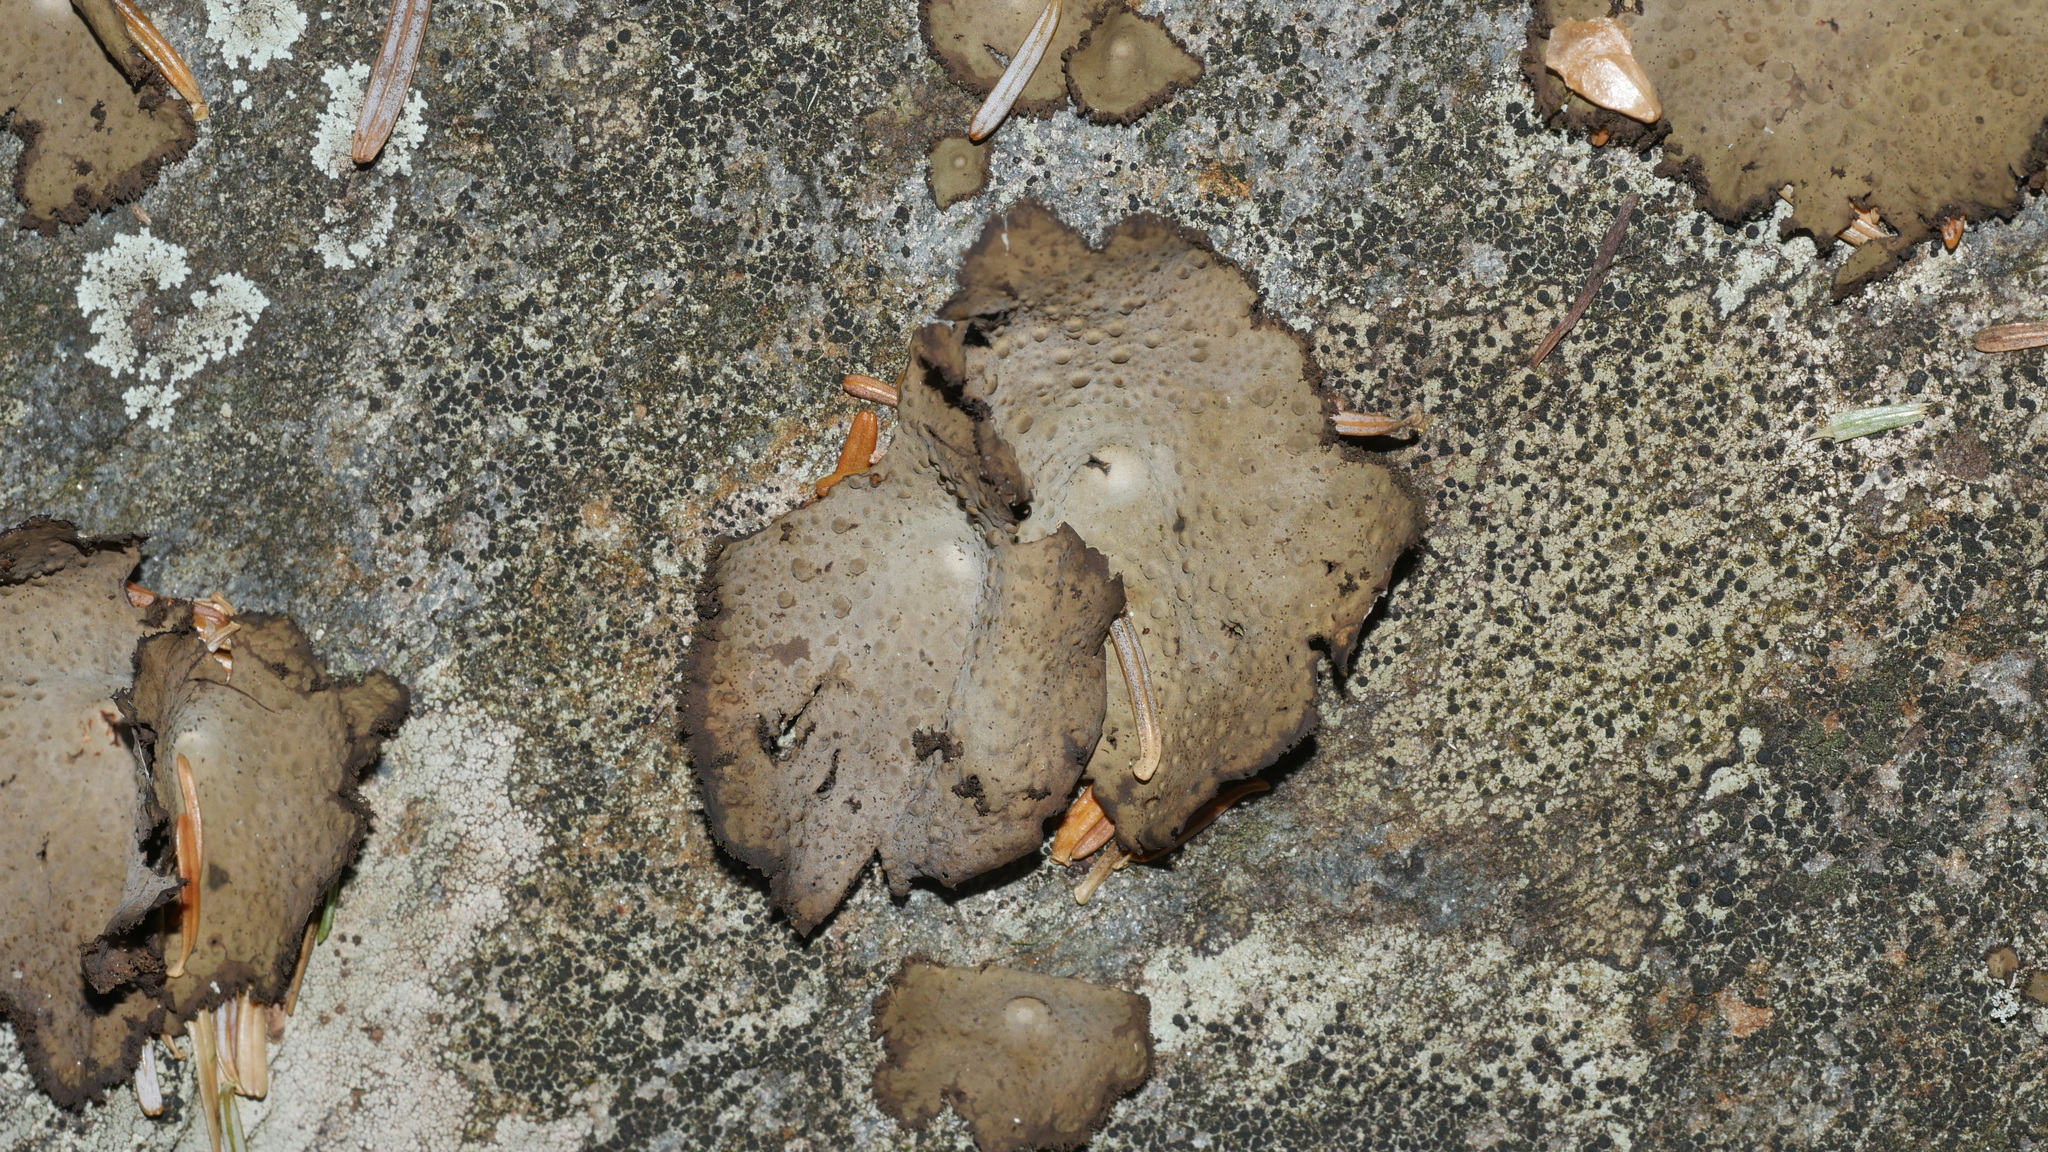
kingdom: Fungi
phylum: Ascomycota
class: Lecanoromycetes
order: Umbilicariales
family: Umbilicariaceae
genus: Lasallia
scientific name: Lasallia pensylvanica
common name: Blackened toadskin lichen
